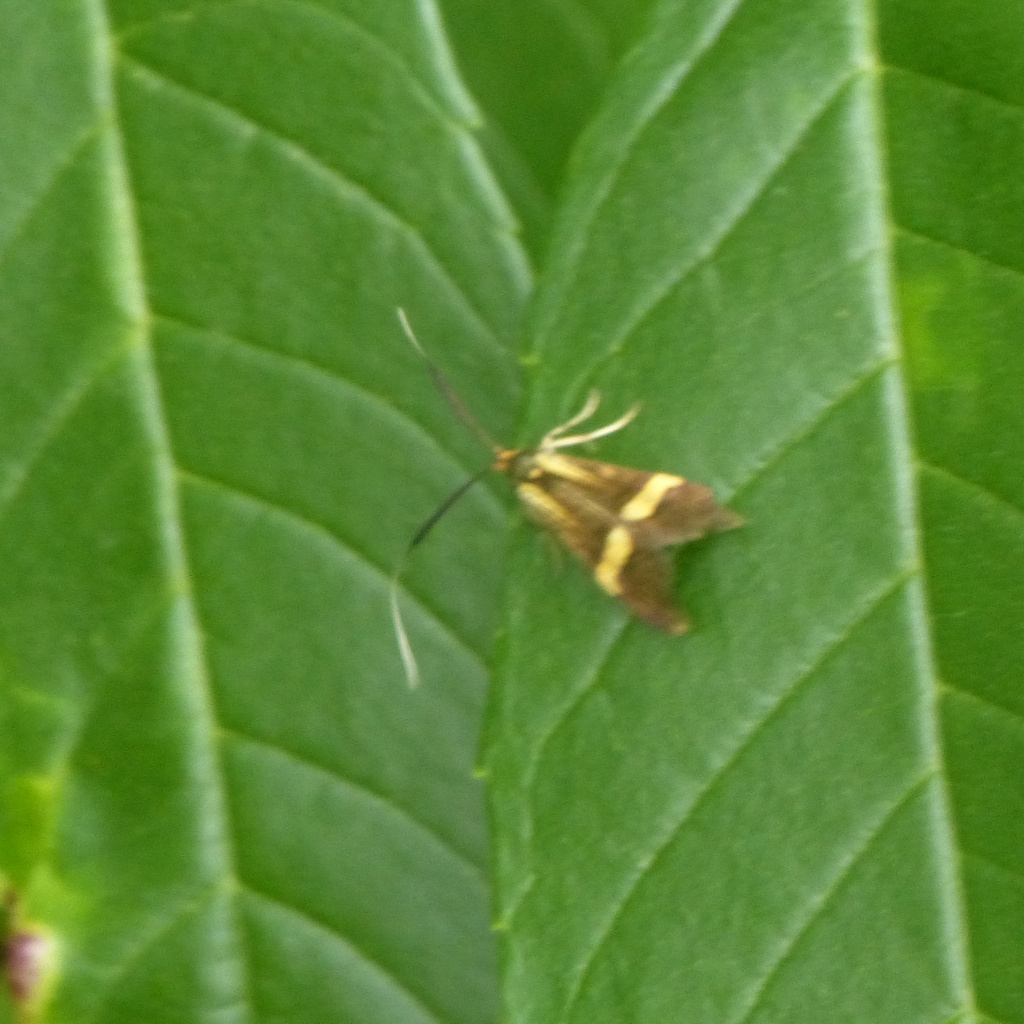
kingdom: Animalia
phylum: Arthropoda
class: Insecta
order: Lepidoptera
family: Adelidae
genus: Nemophora
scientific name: Nemophora degeerella
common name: Yellow-barred long-horn
